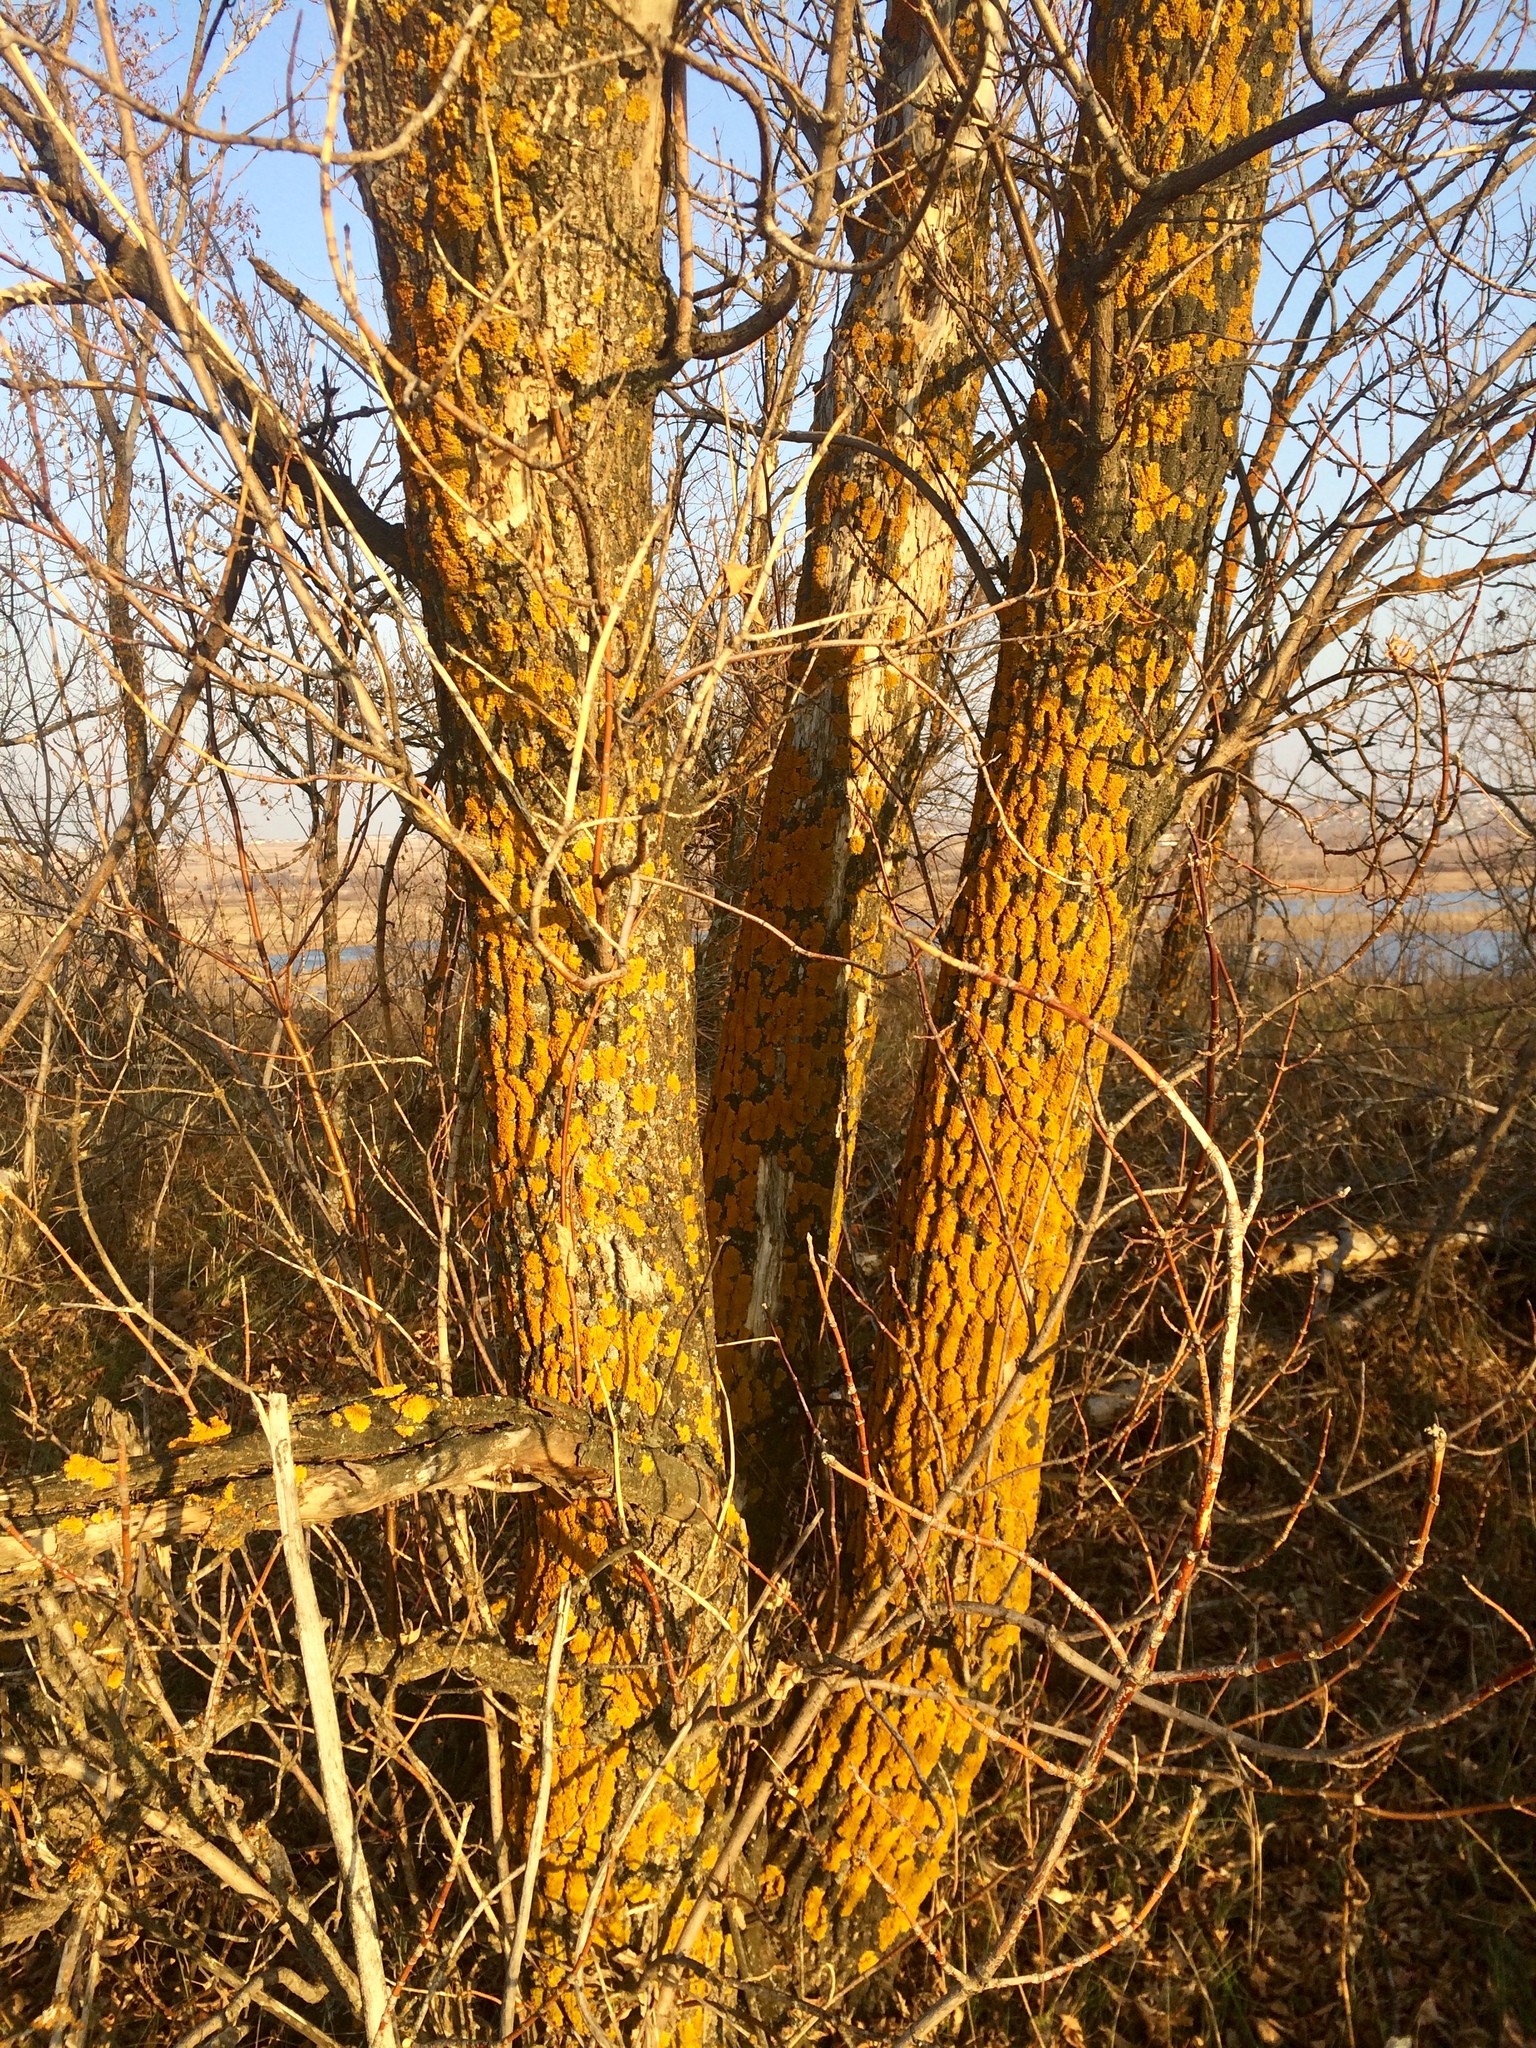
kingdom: Fungi
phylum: Ascomycota
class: Lecanoromycetes
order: Teloschistales
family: Teloschistaceae
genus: Xanthoria
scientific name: Xanthoria parietina
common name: Common orange lichen
